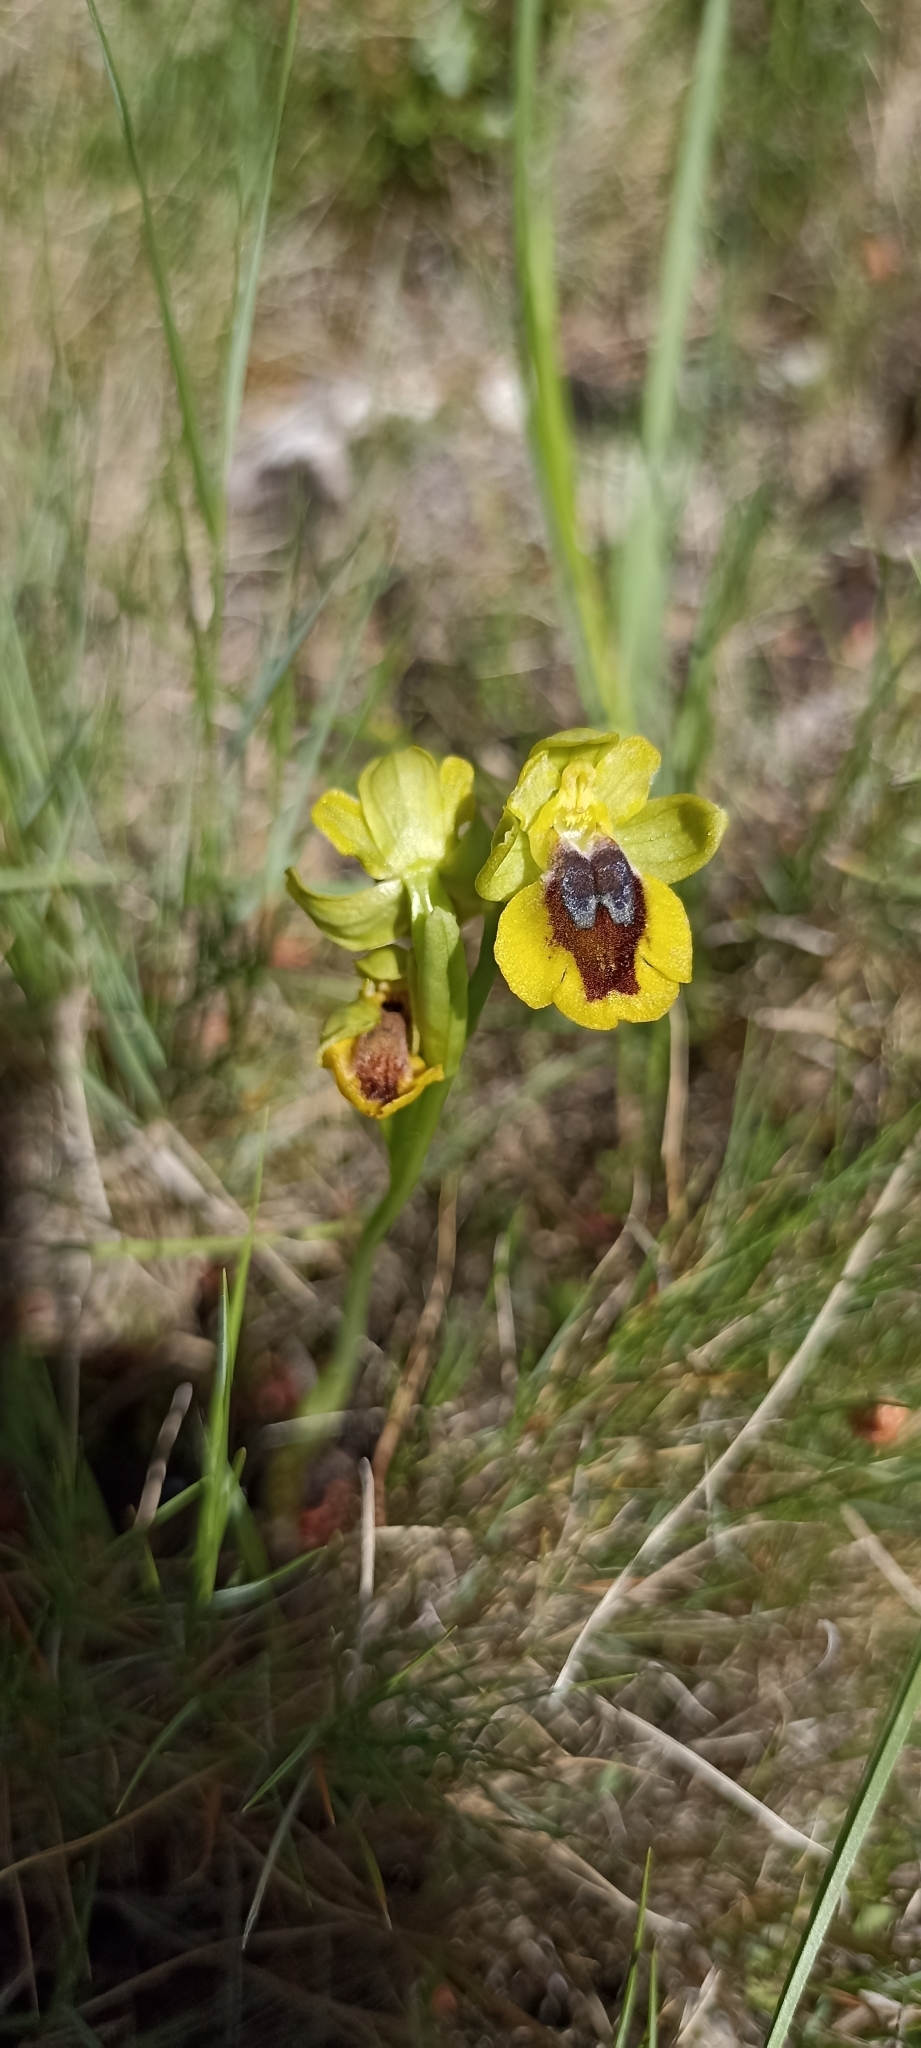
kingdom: Plantae
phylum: Tracheophyta
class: Liliopsida
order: Asparagales
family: Orchidaceae
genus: Ophrys
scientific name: Ophrys lutea
